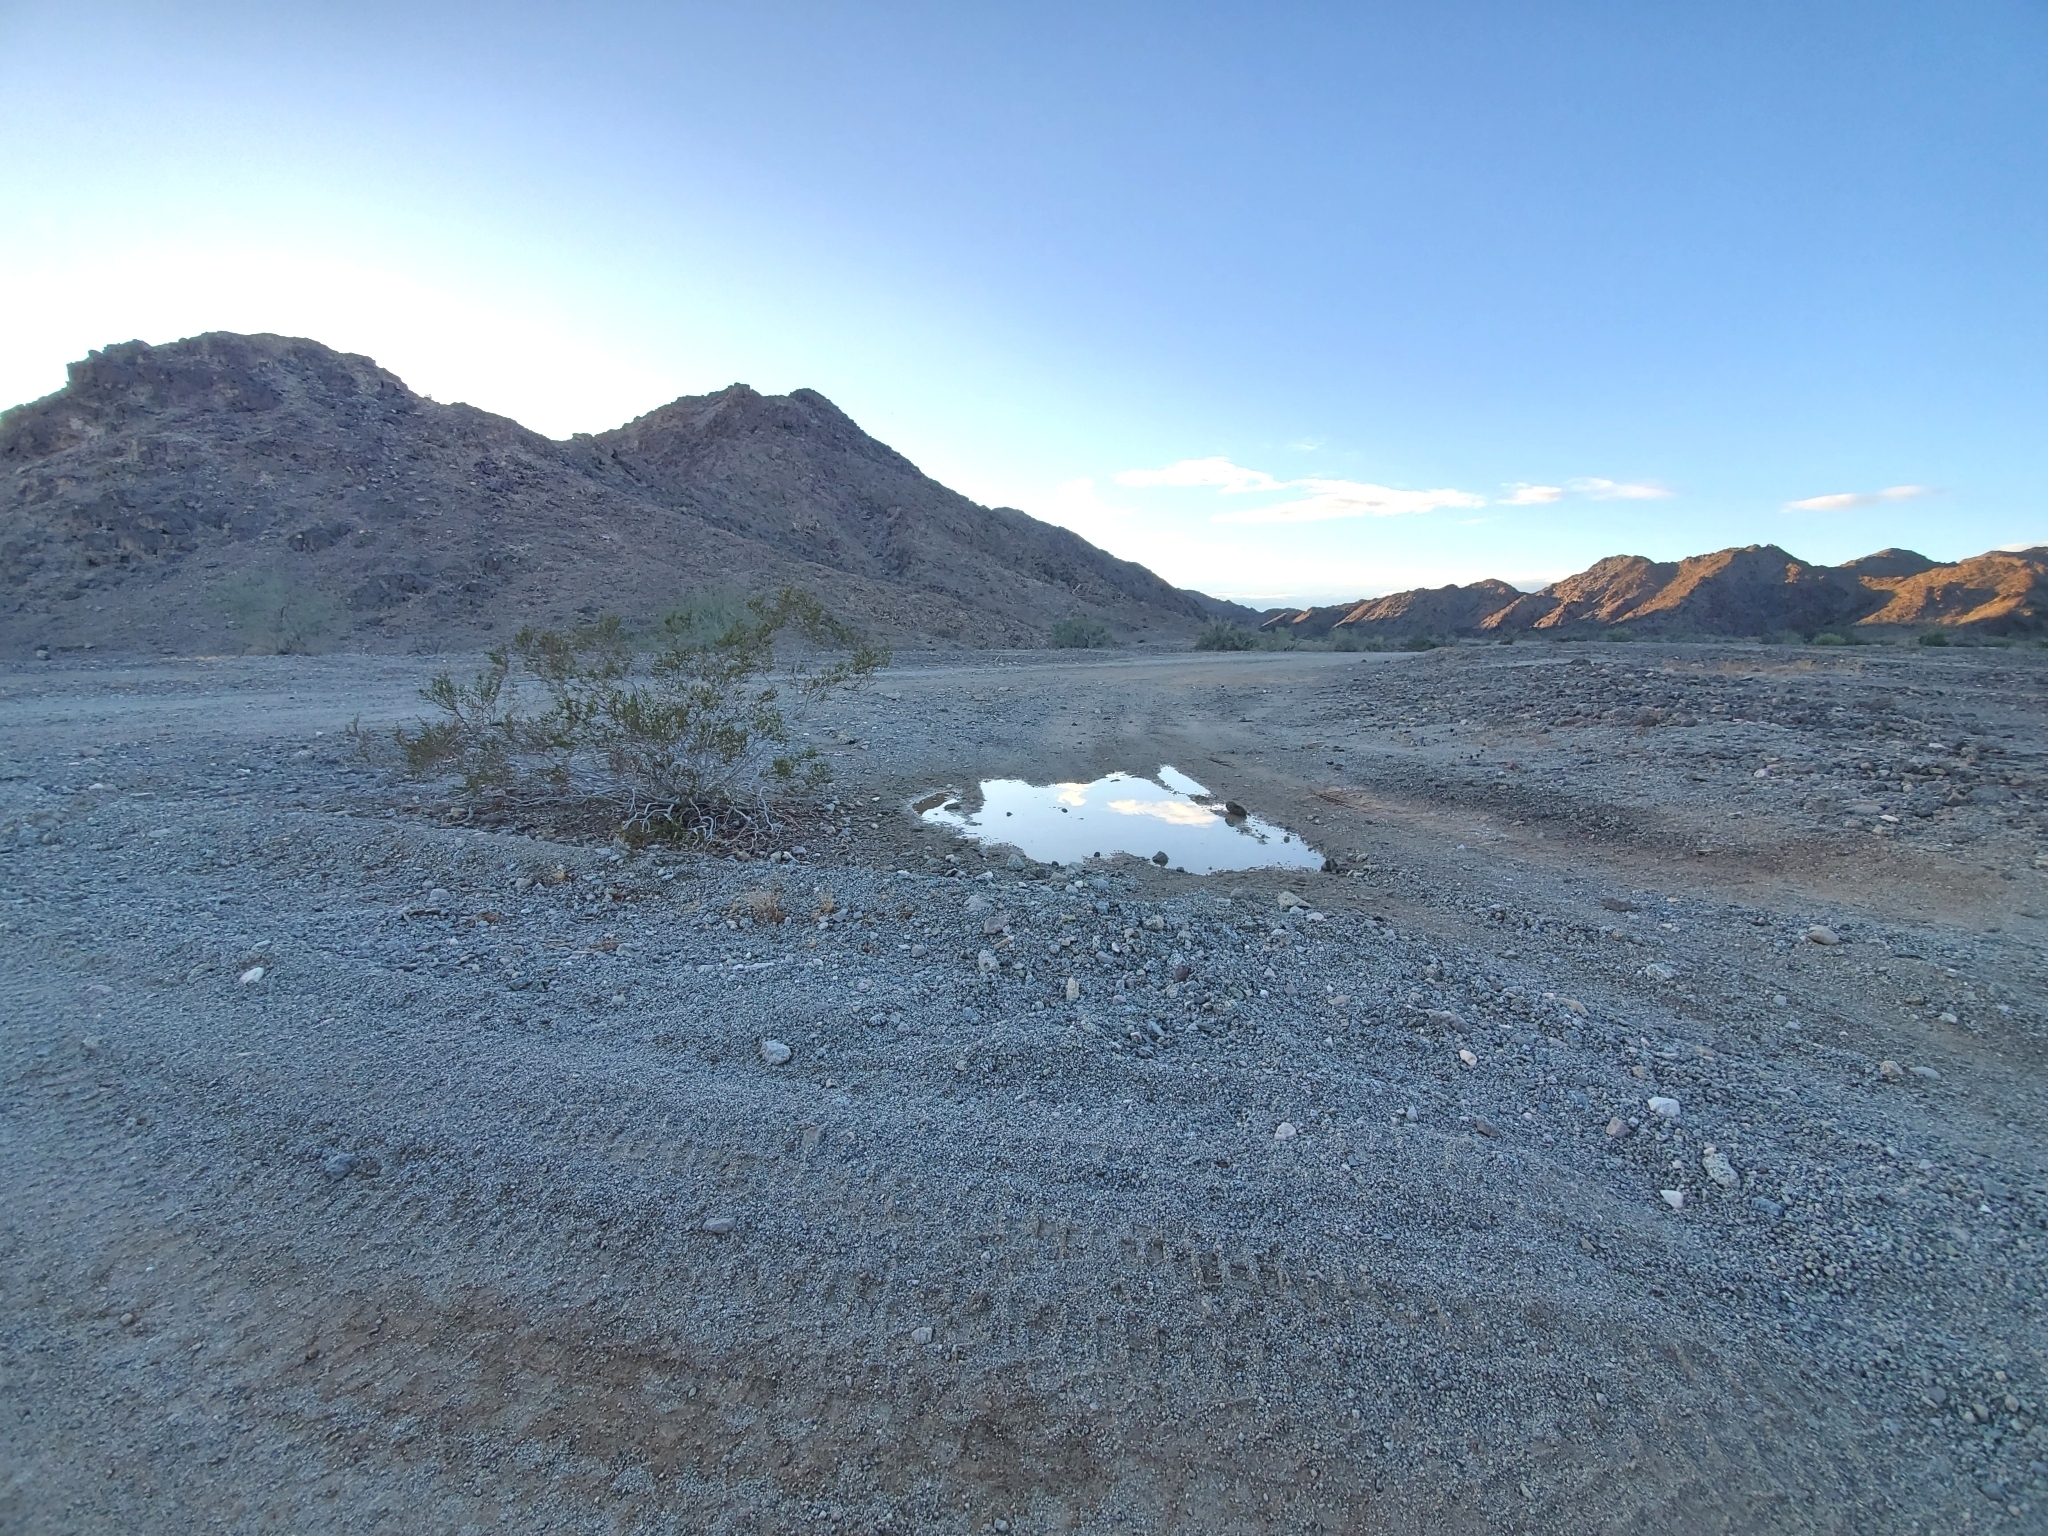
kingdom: Plantae
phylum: Tracheophyta
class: Magnoliopsida
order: Zygophyllales
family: Zygophyllaceae
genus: Larrea
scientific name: Larrea tridentata
